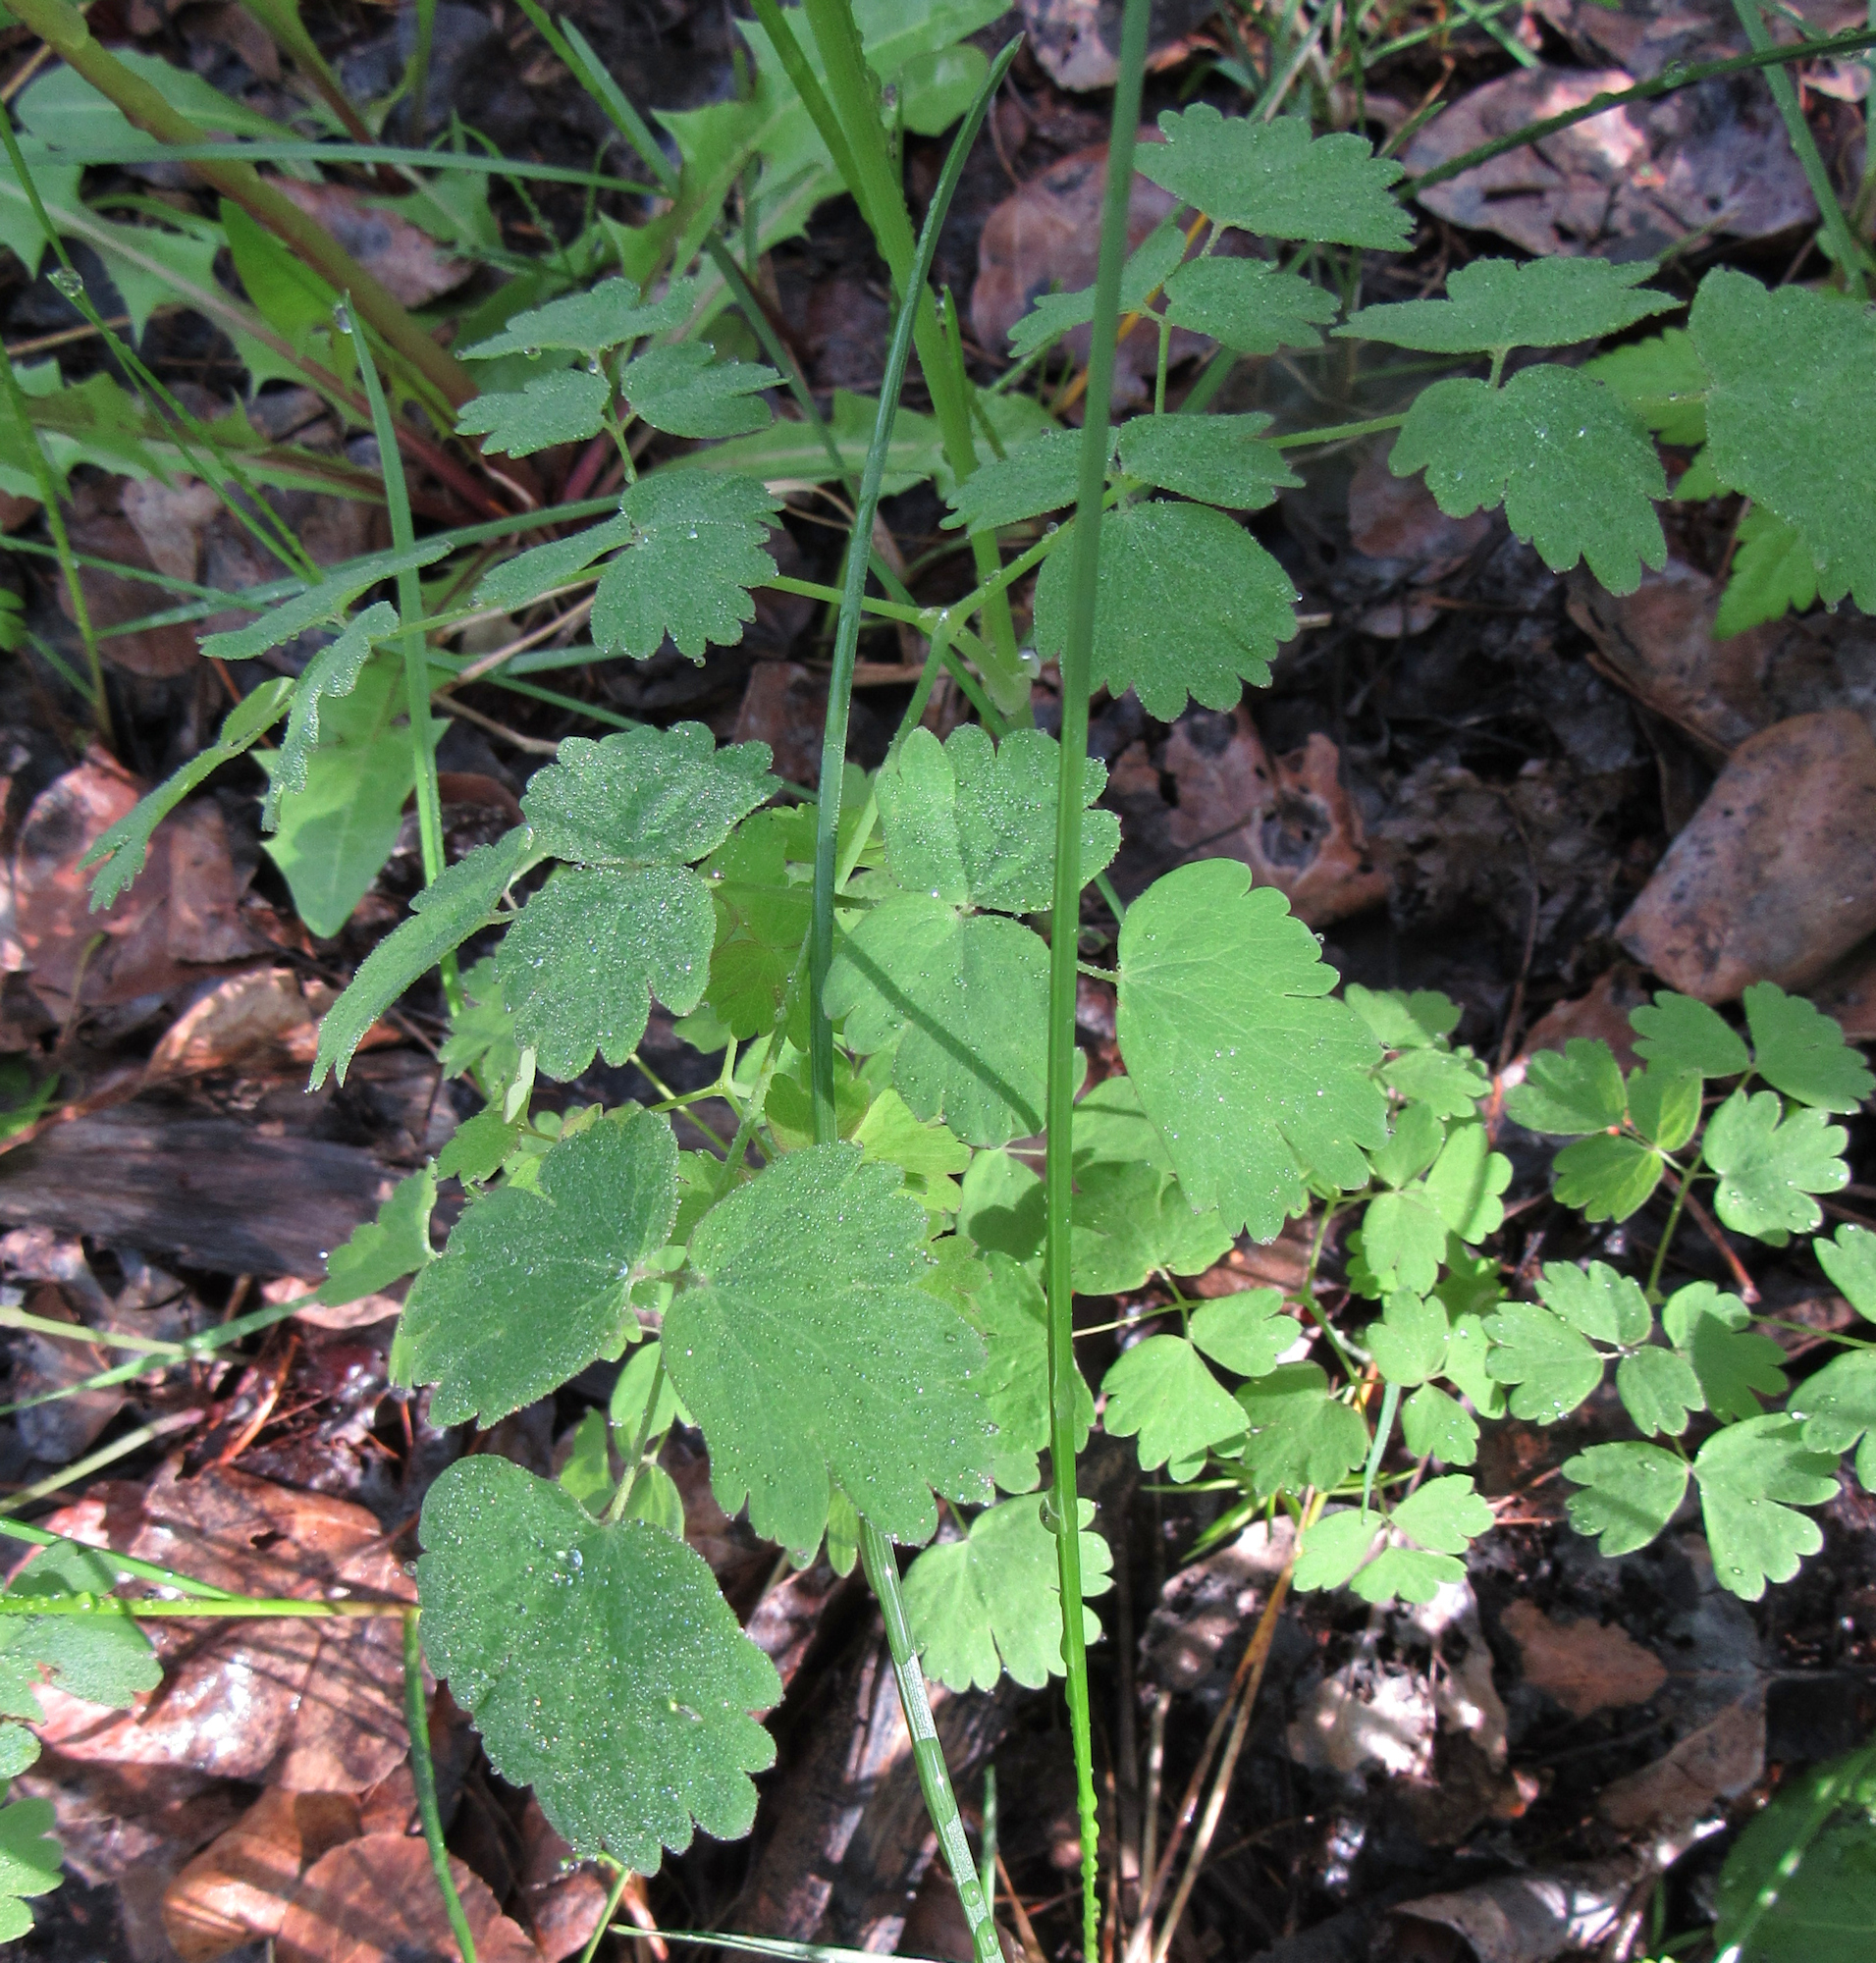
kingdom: Plantae
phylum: Tracheophyta
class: Magnoliopsida
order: Ranunculales
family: Ranunculaceae
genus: Thalictrum
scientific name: Thalictrum occidentale
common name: Western meadow-rue
